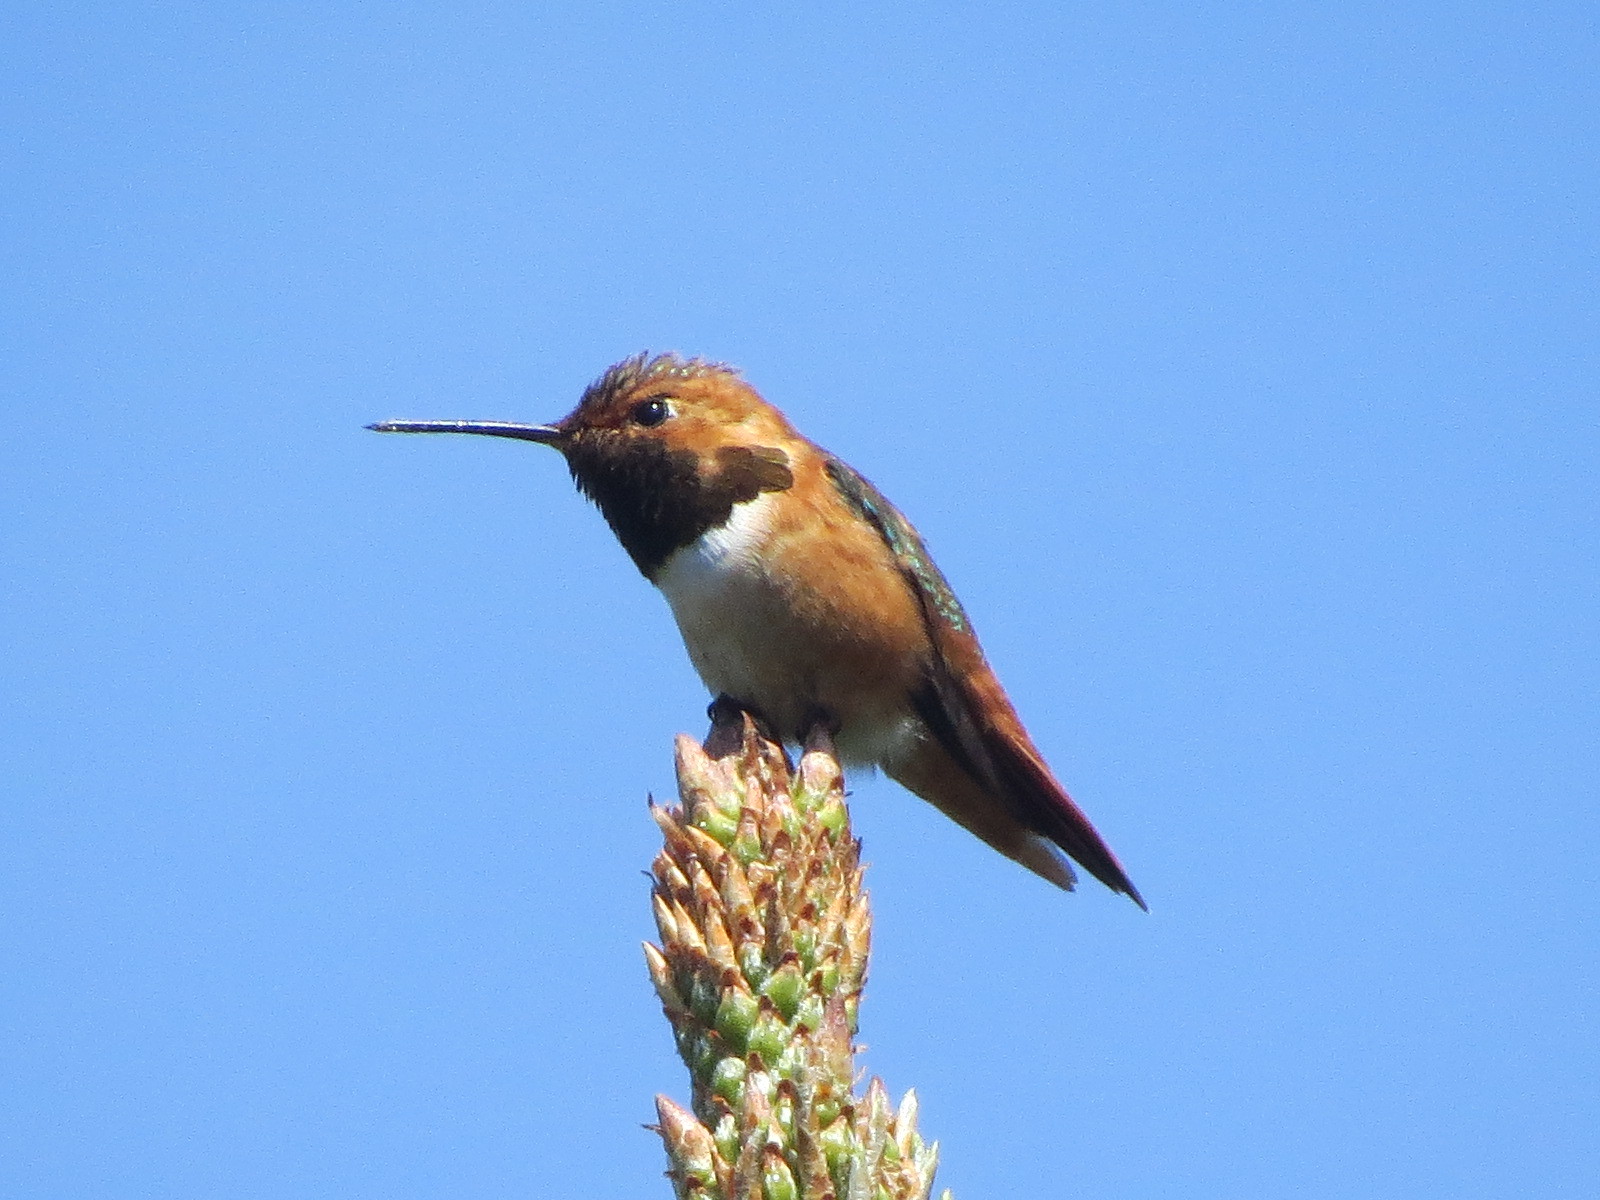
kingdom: Animalia
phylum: Chordata
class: Aves
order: Apodiformes
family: Trochilidae
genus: Selasphorus
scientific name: Selasphorus sasin
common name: Allen's hummingbird
